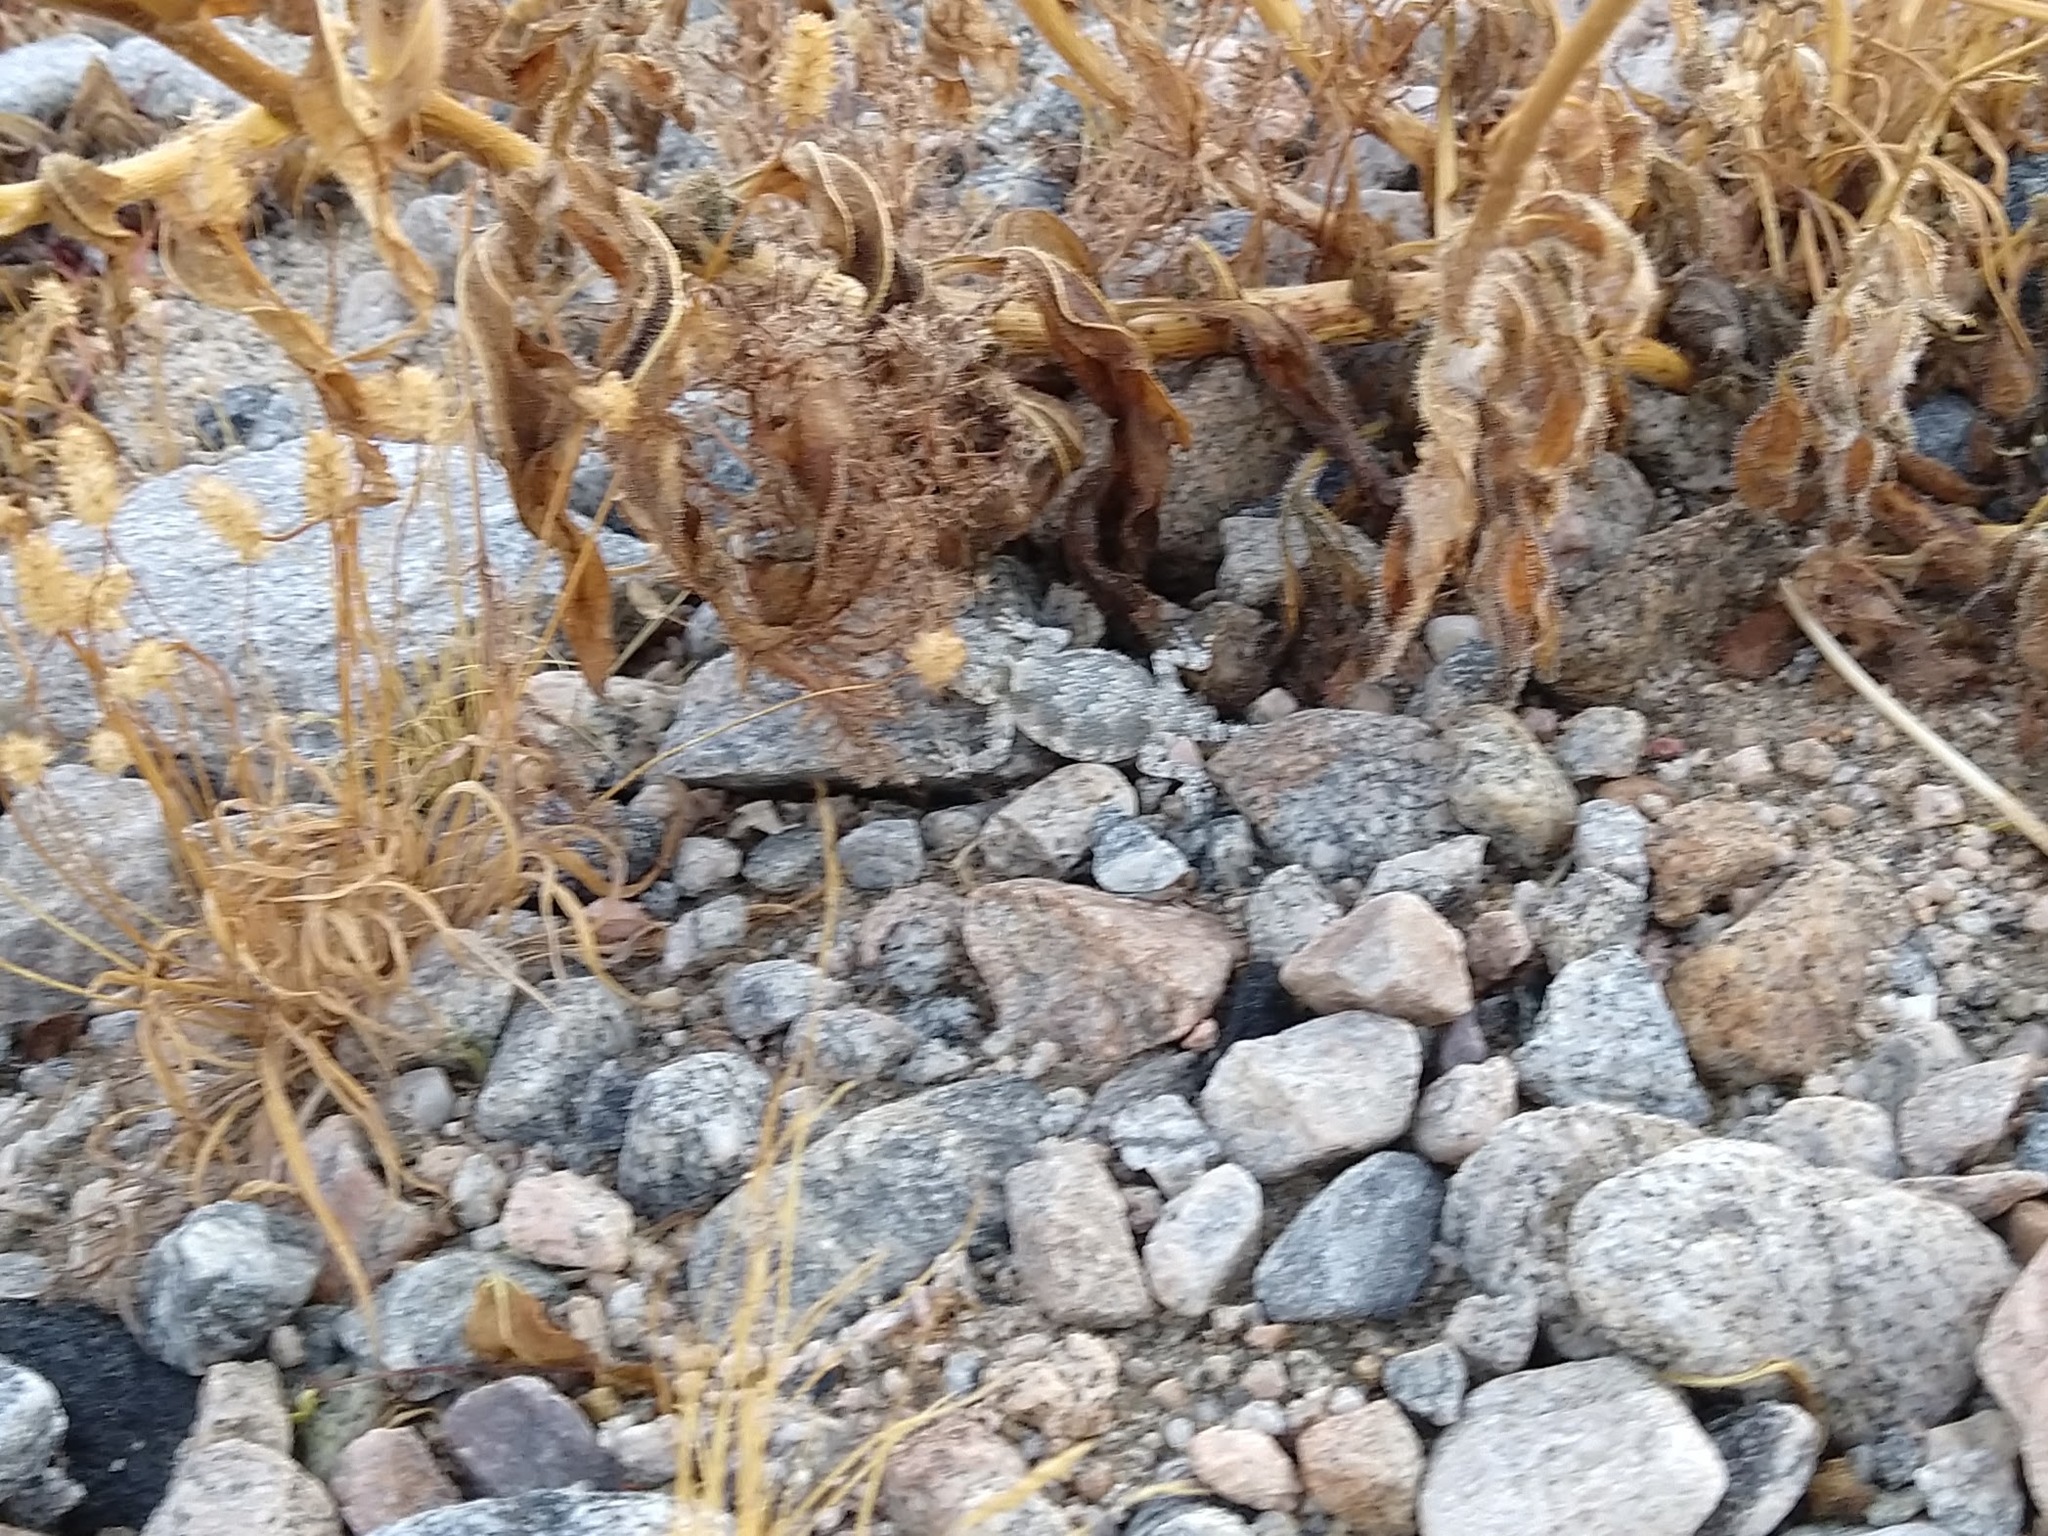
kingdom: Animalia
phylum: Chordata
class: Squamata
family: Phrynosomatidae
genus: Phrynosoma
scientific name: Phrynosoma platyrhinos
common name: Desert horned lizard
